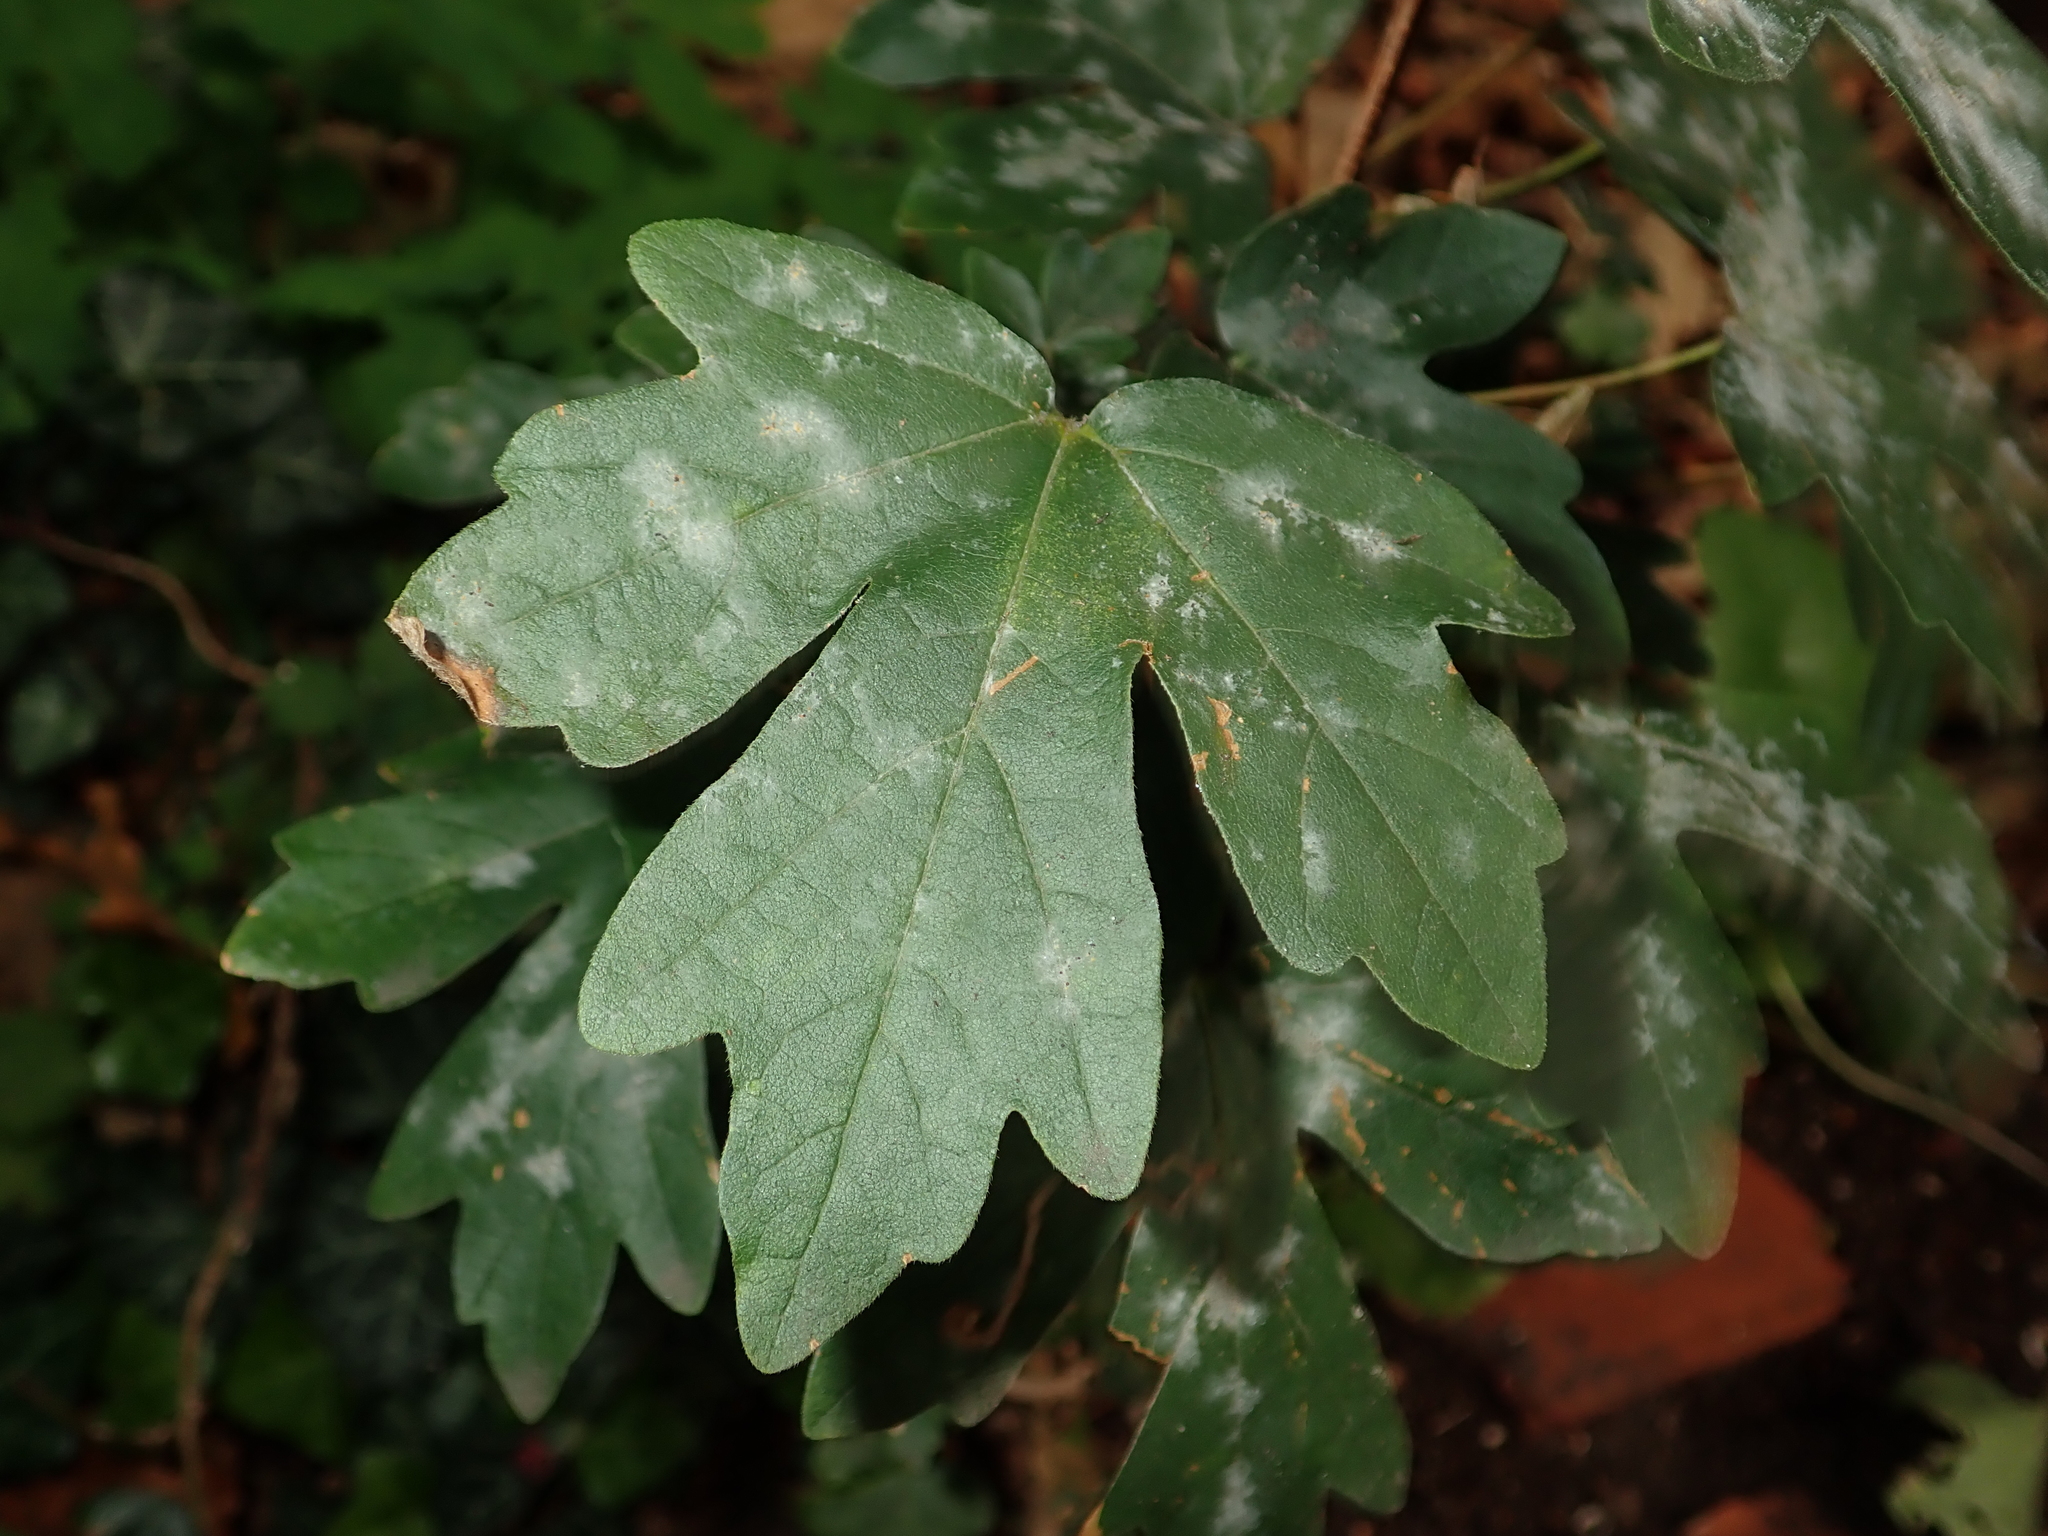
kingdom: Plantae
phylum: Tracheophyta
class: Magnoliopsida
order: Sapindales
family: Sapindaceae
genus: Acer
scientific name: Acer campestre
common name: Field maple
